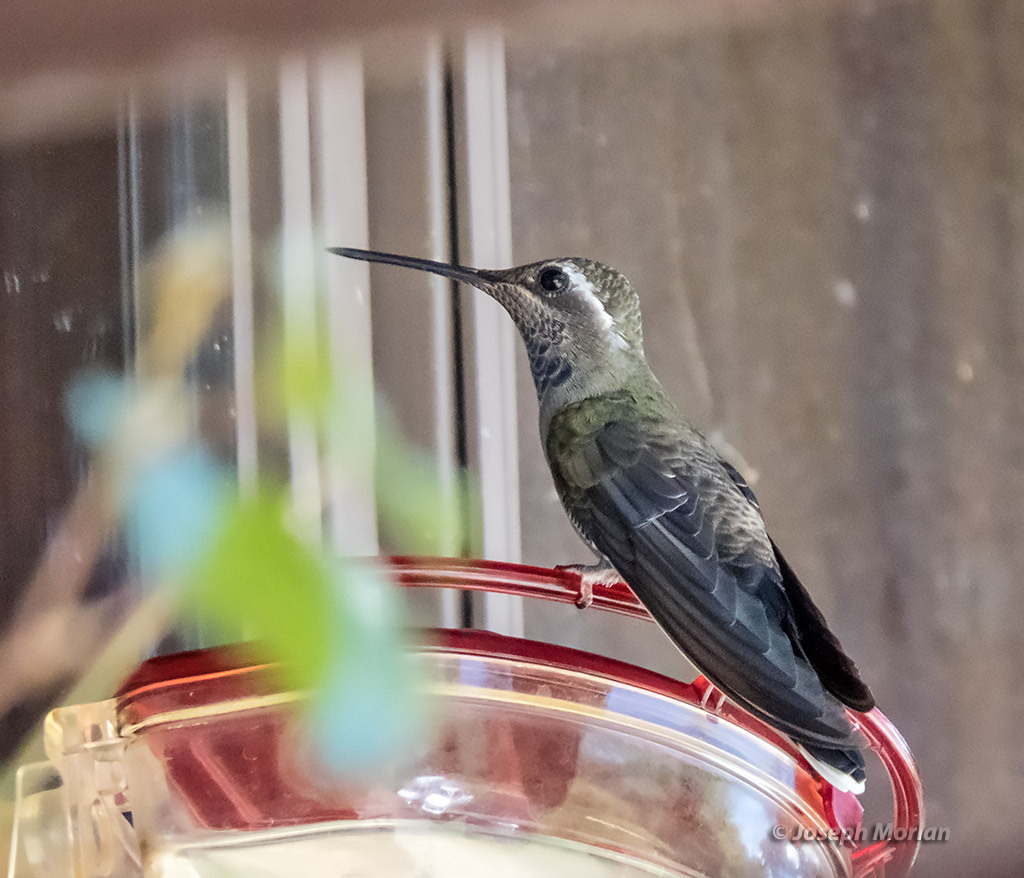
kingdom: Animalia
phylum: Chordata
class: Aves
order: Apodiformes
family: Trochilidae
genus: Lampornis
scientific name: Lampornis clemenciae
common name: Blue-throated mountaingem
